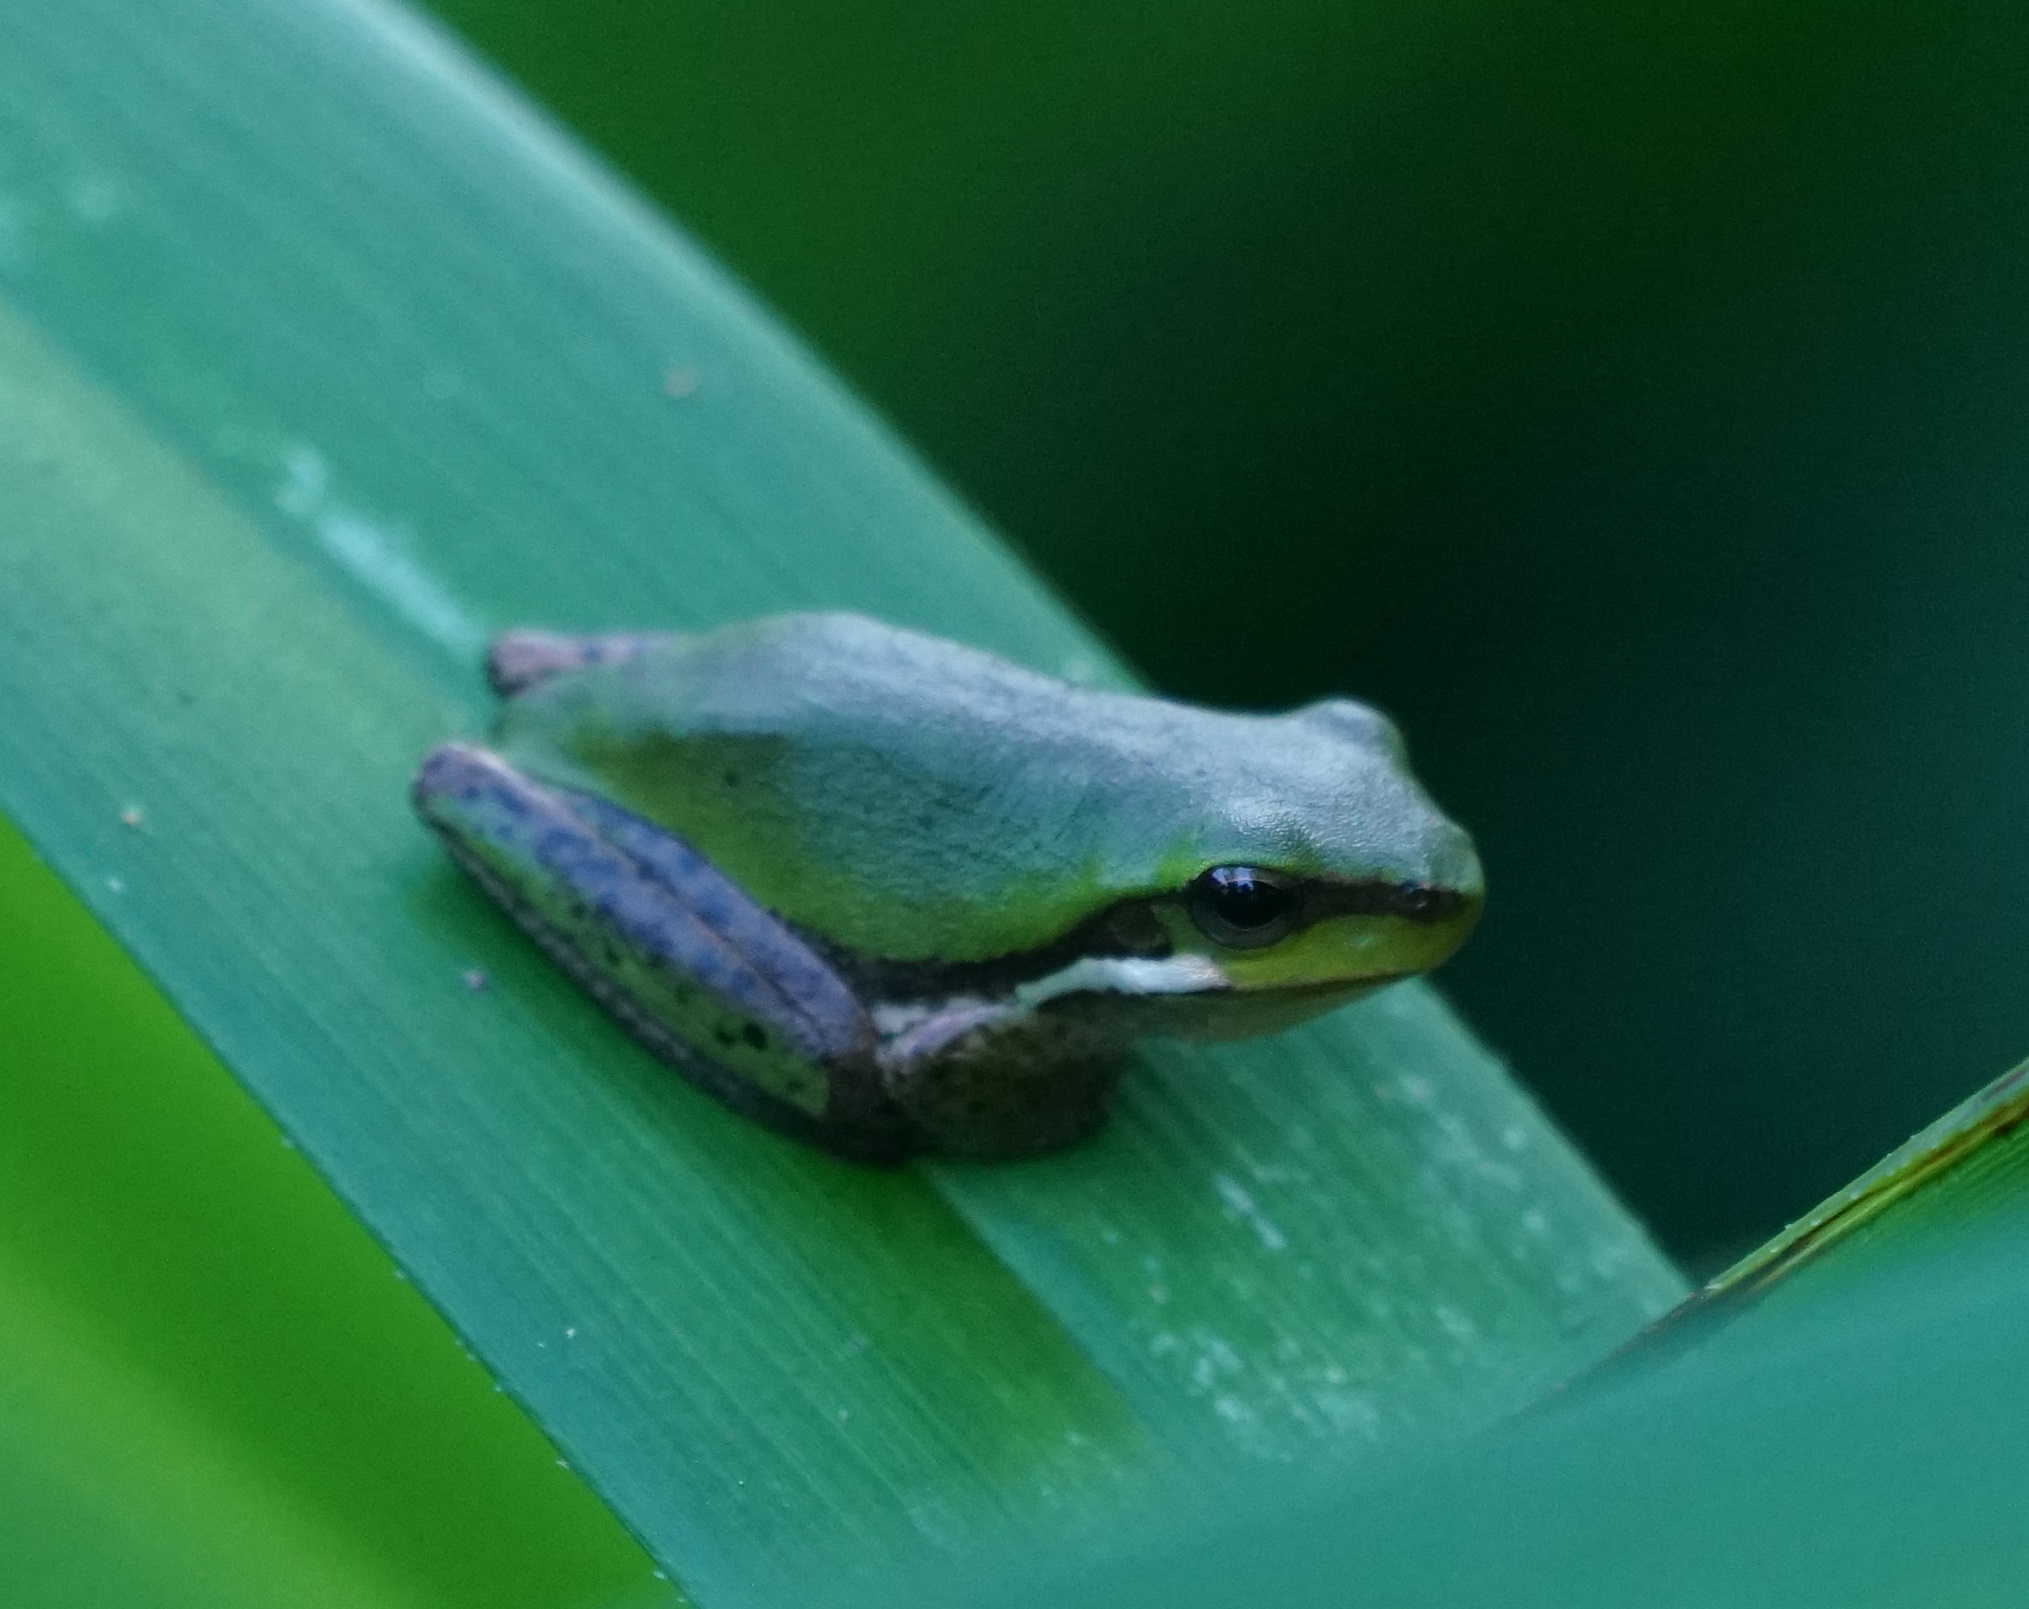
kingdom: Animalia
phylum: Chordata
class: Amphibia
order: Anura
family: Pelodryadidae
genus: Litoria
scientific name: Litoria fallax
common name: Eastern dwarf treefrog
